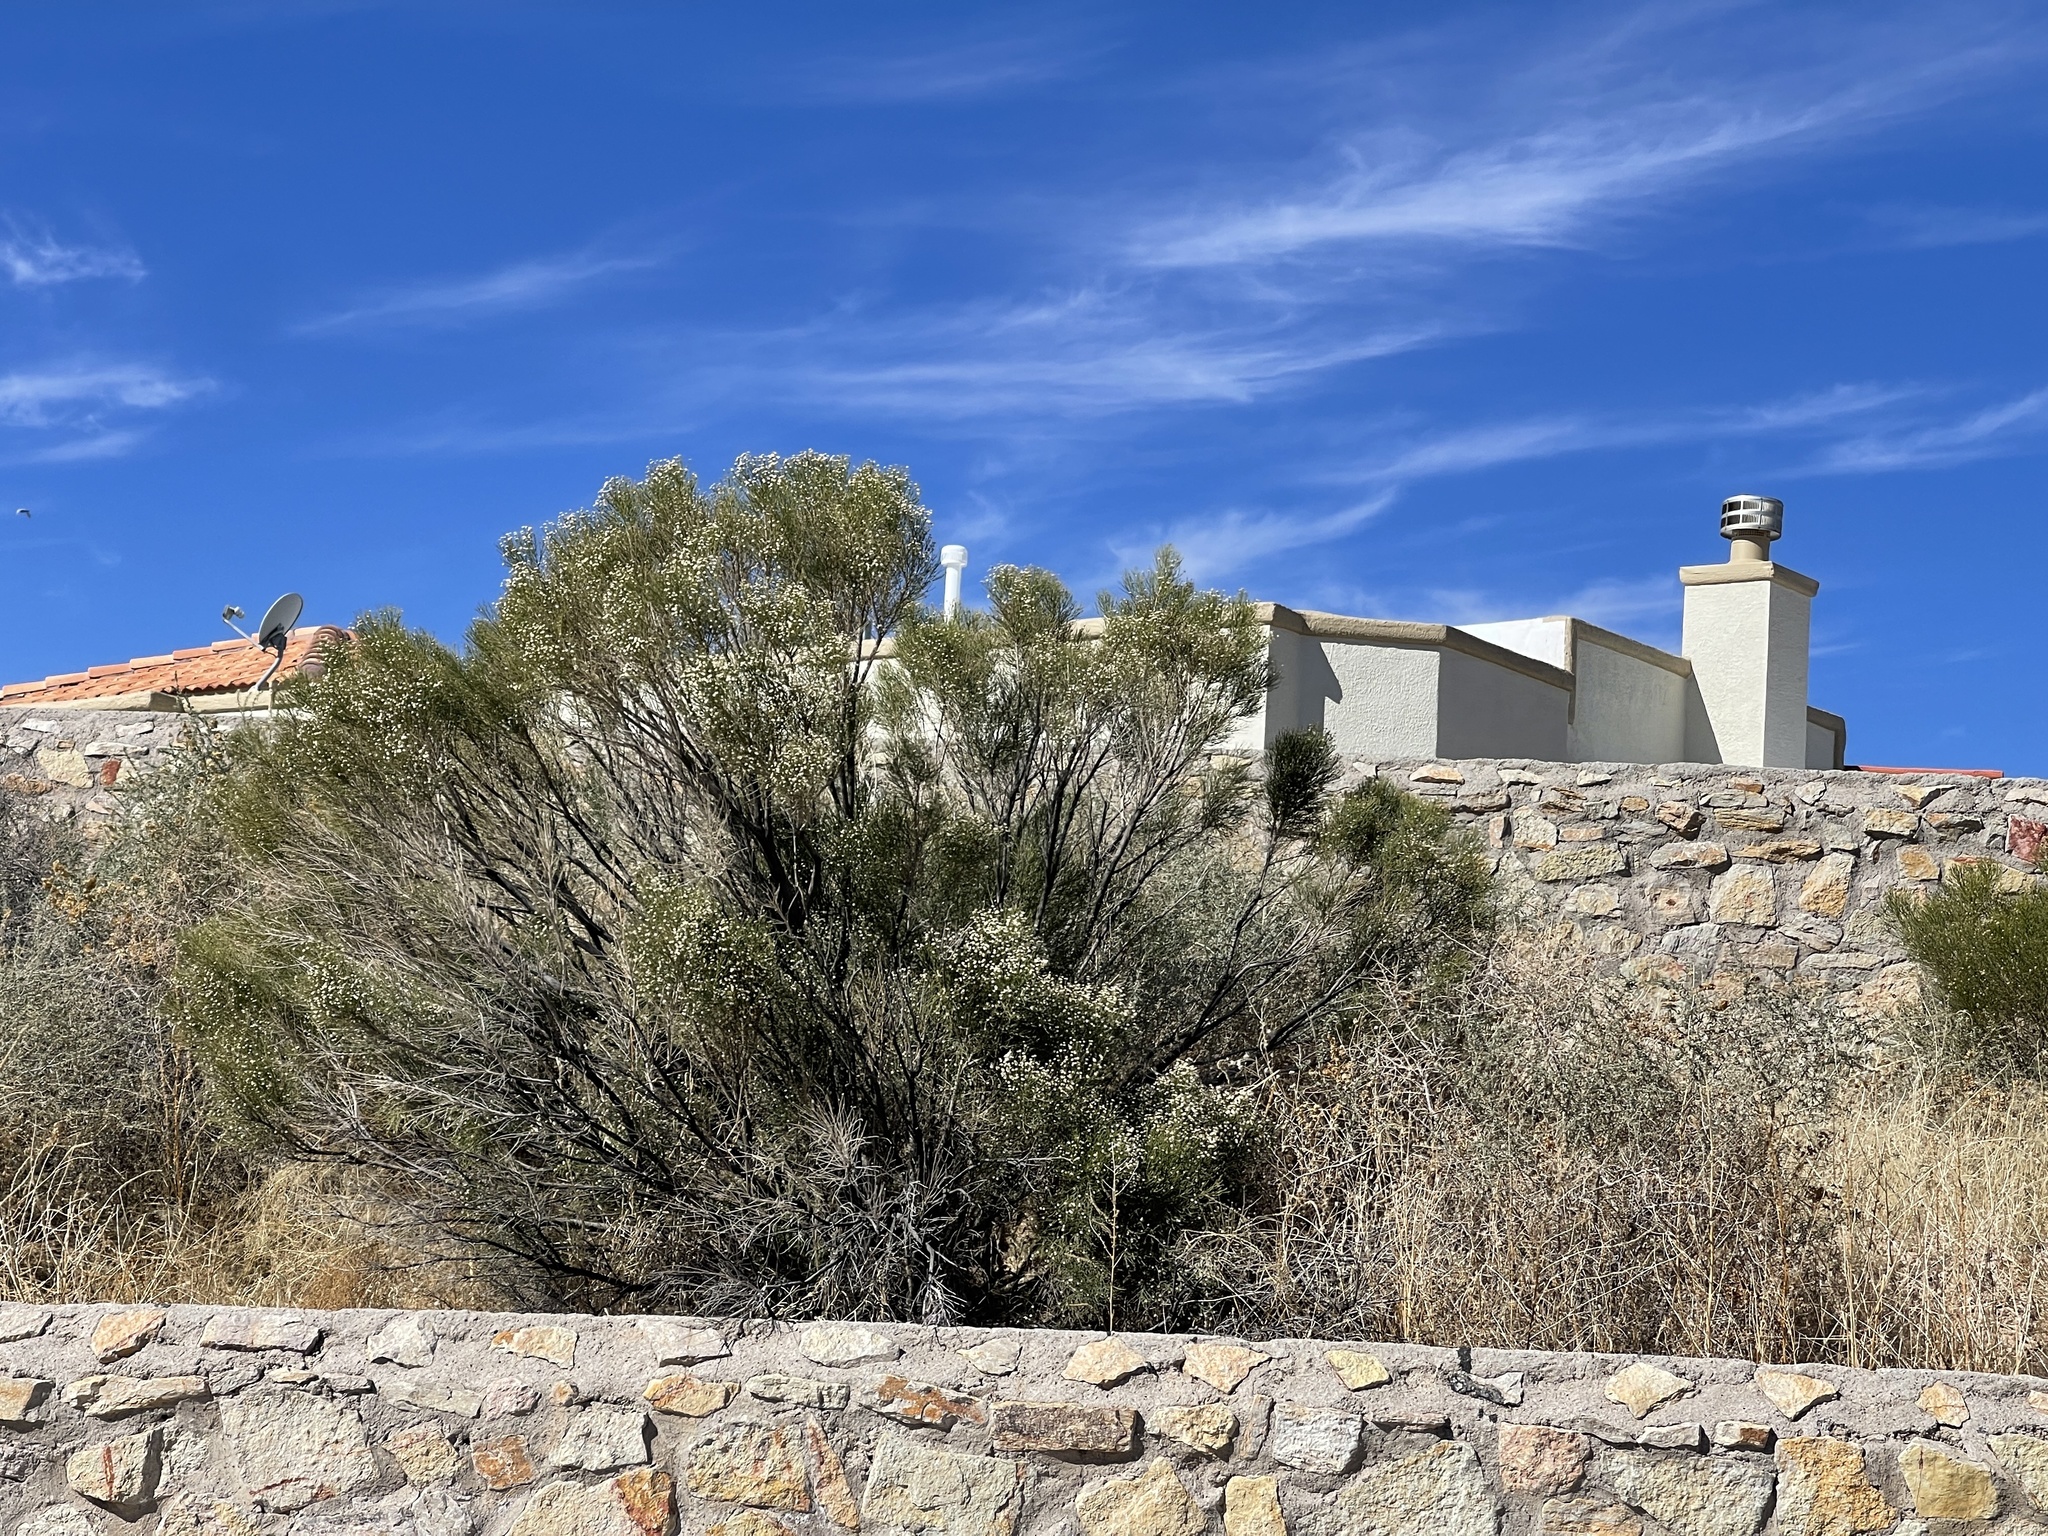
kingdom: Plantae
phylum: Tracheophyta
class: Magnoliopsida
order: Asterales
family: Asteraceae
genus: Baccharis
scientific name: Baccharis sarothroides
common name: Desert-broom
